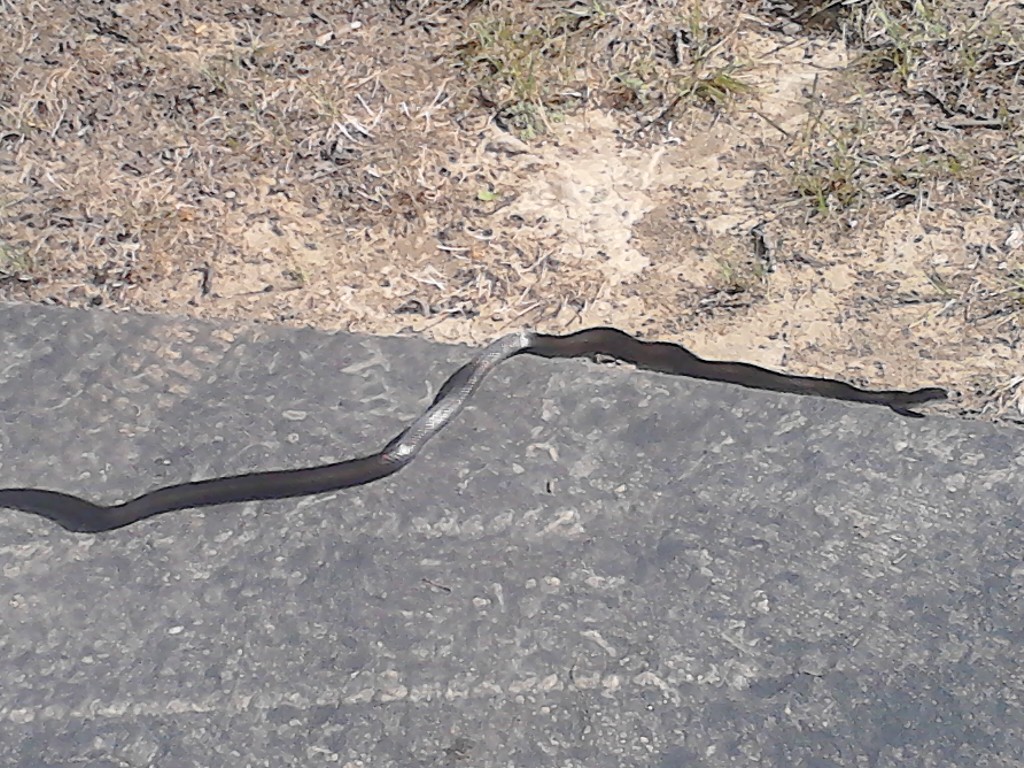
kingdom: Animalia
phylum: Chordata
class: Squamata
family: Colubridae
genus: Pantherophis
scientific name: Pantherophis spiloides
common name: Gray rat snake
